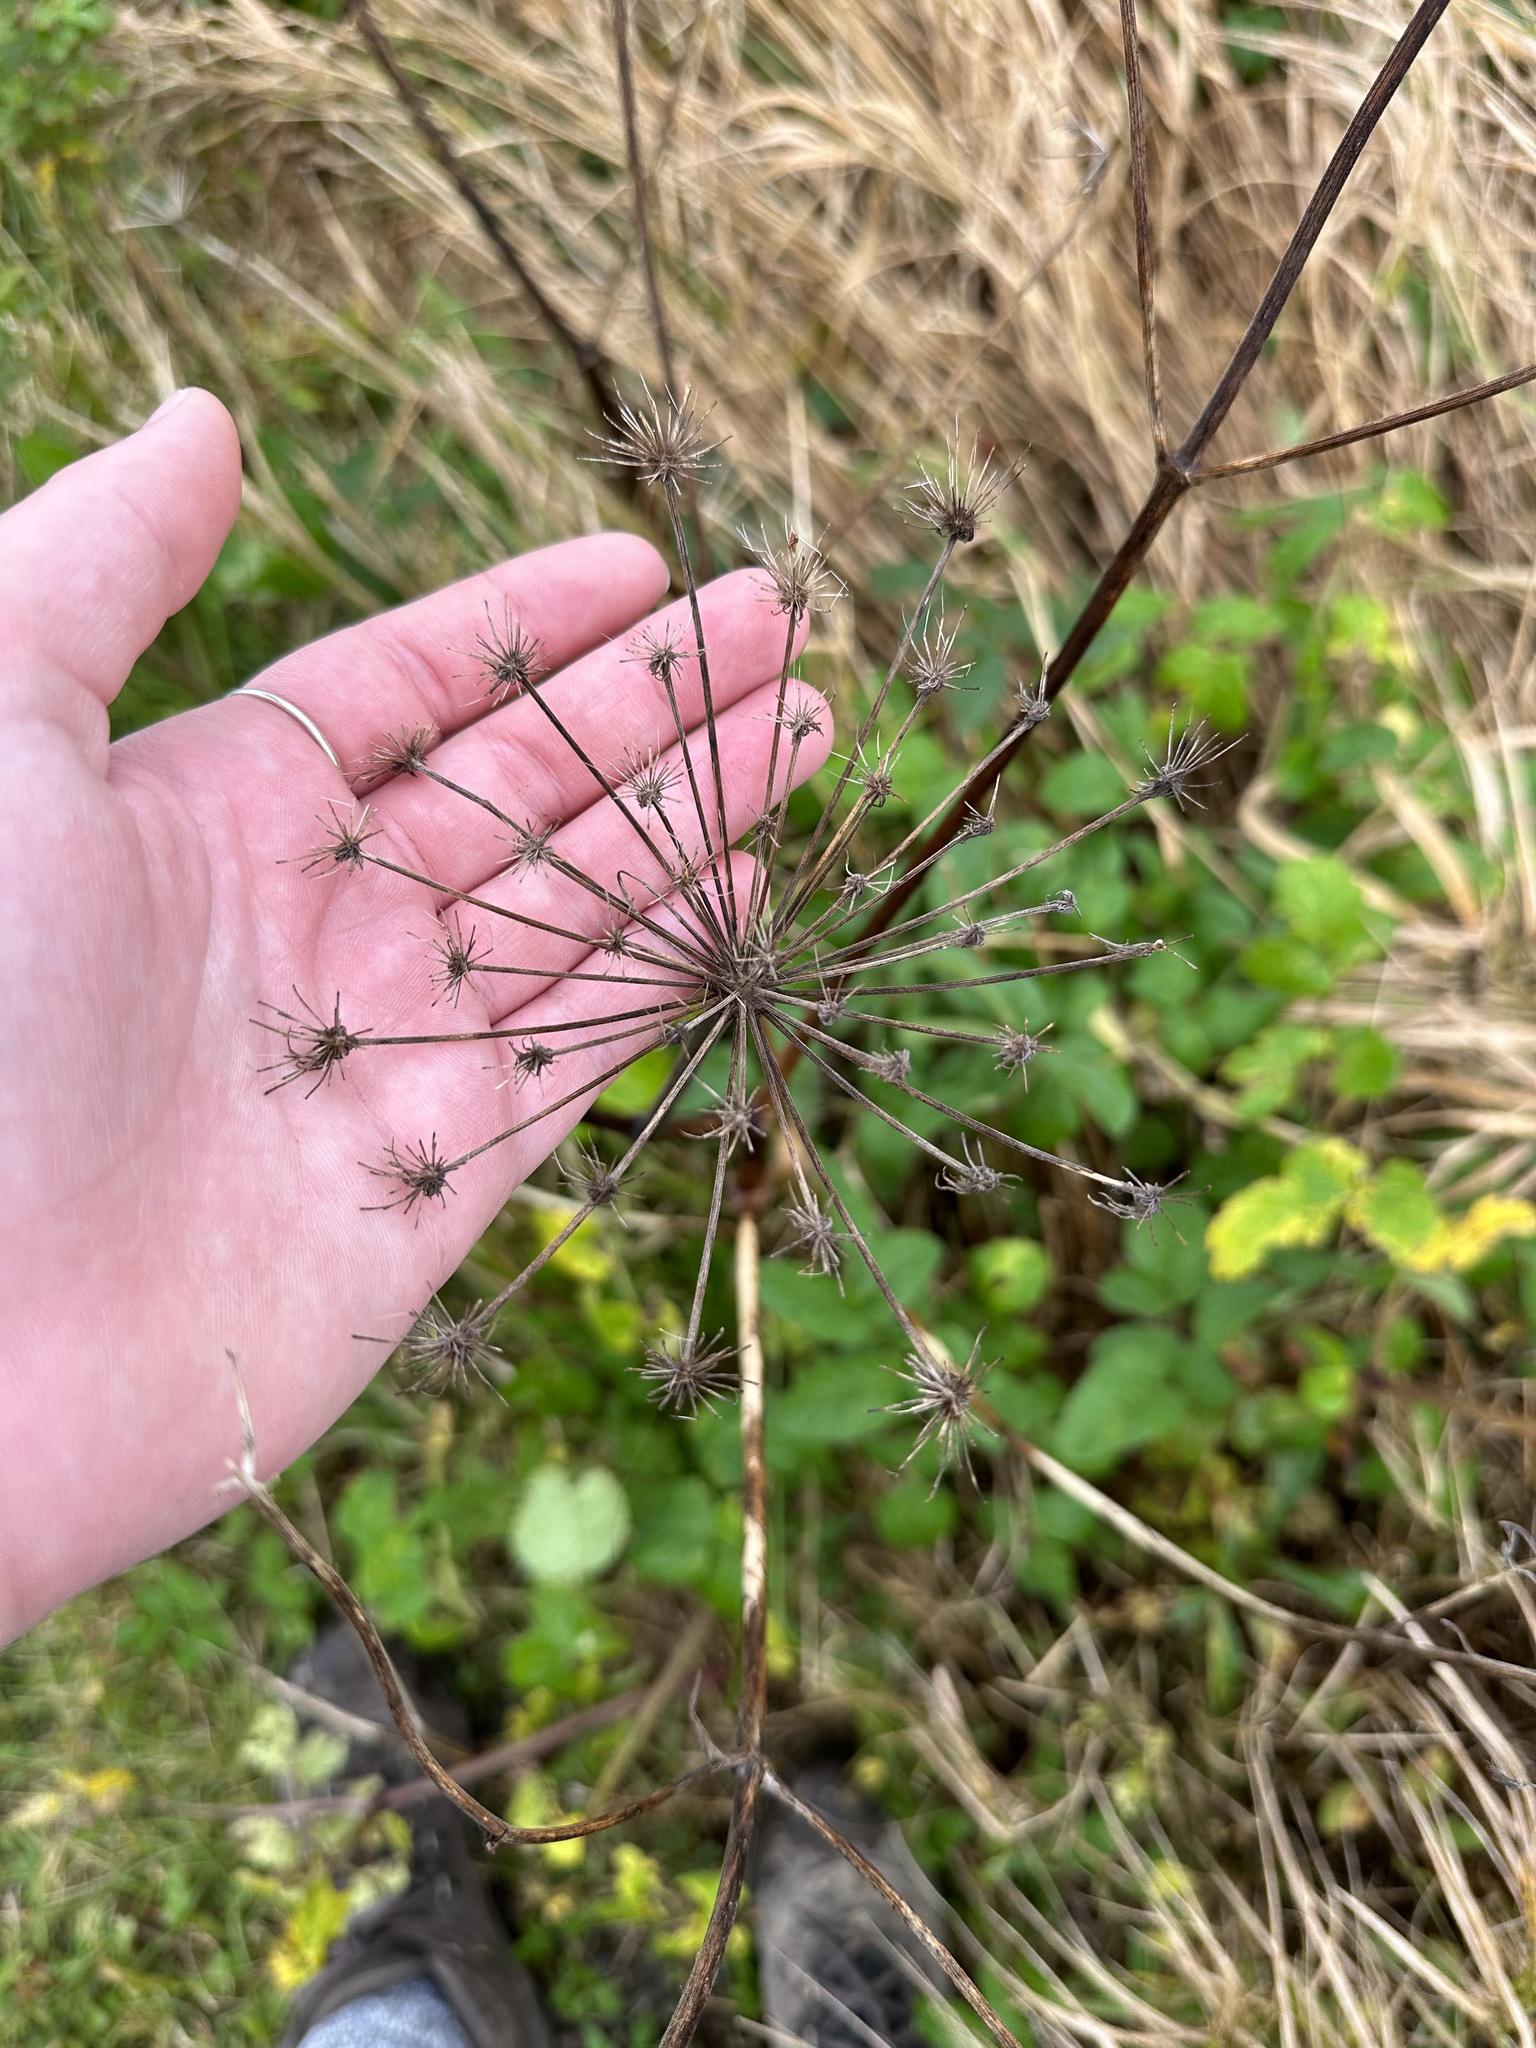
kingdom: Plantae
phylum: Tracheophyta
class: Magnoliopsida
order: Apiales
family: Apiaceae
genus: Angelica
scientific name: Angelica sylvestris
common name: Wild angelica
